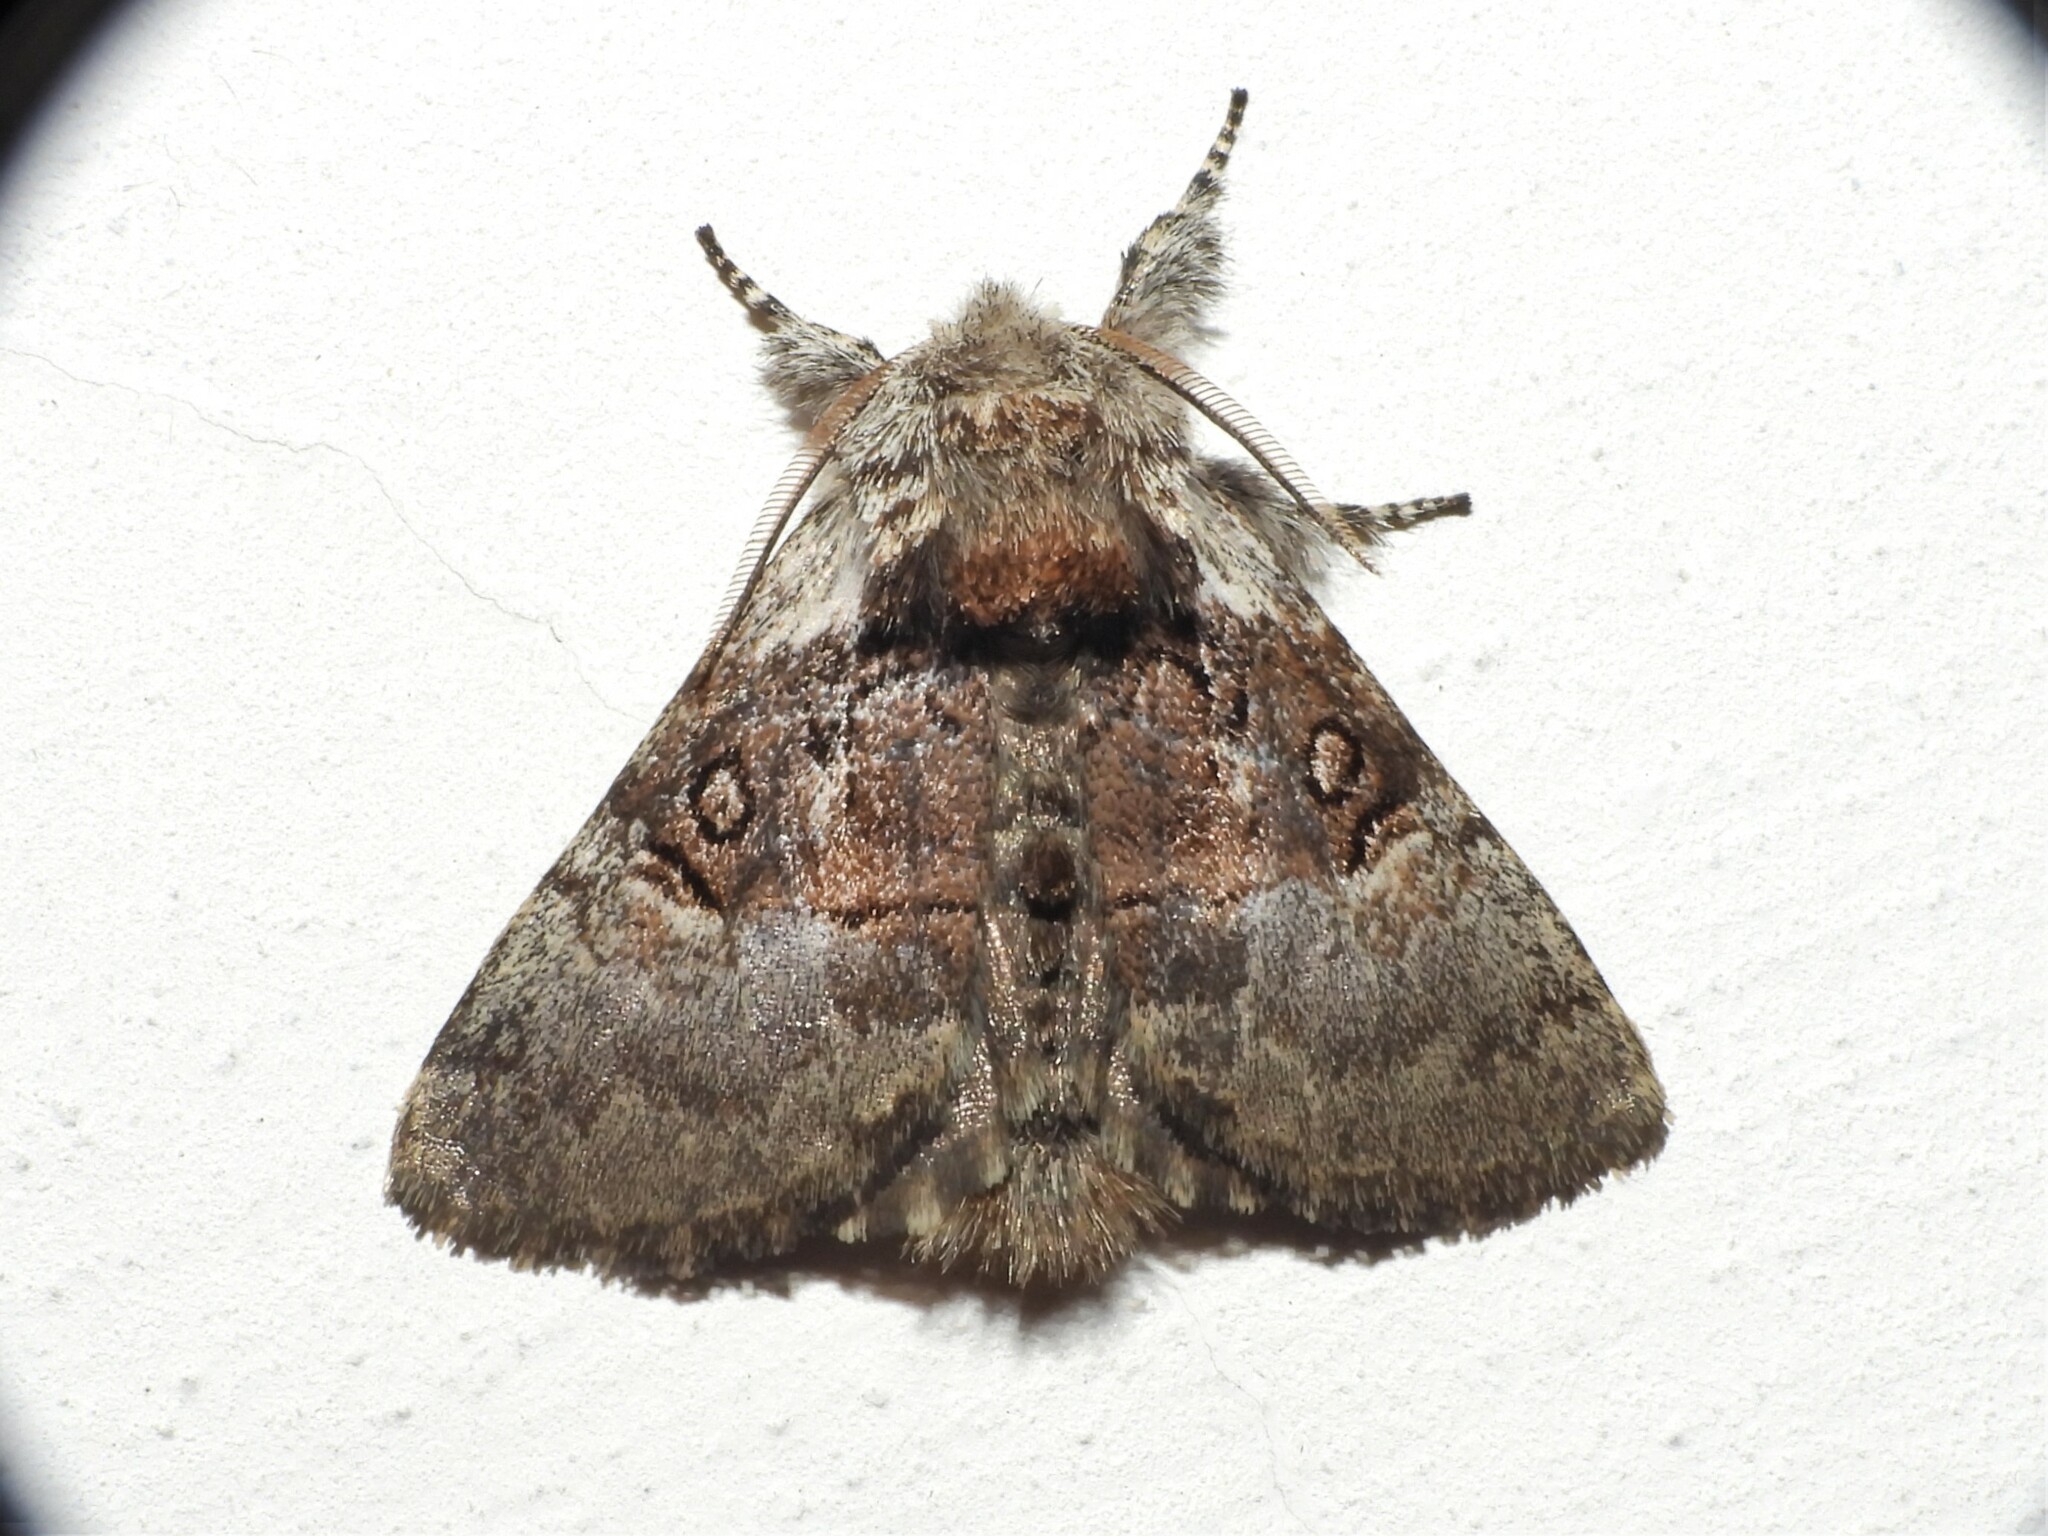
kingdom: Animalia
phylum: Arthropoda
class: Insecta
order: Lepidoptera
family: Noctuidae
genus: Colocasia
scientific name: Colocasia coryli
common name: Nut-tree tussock
